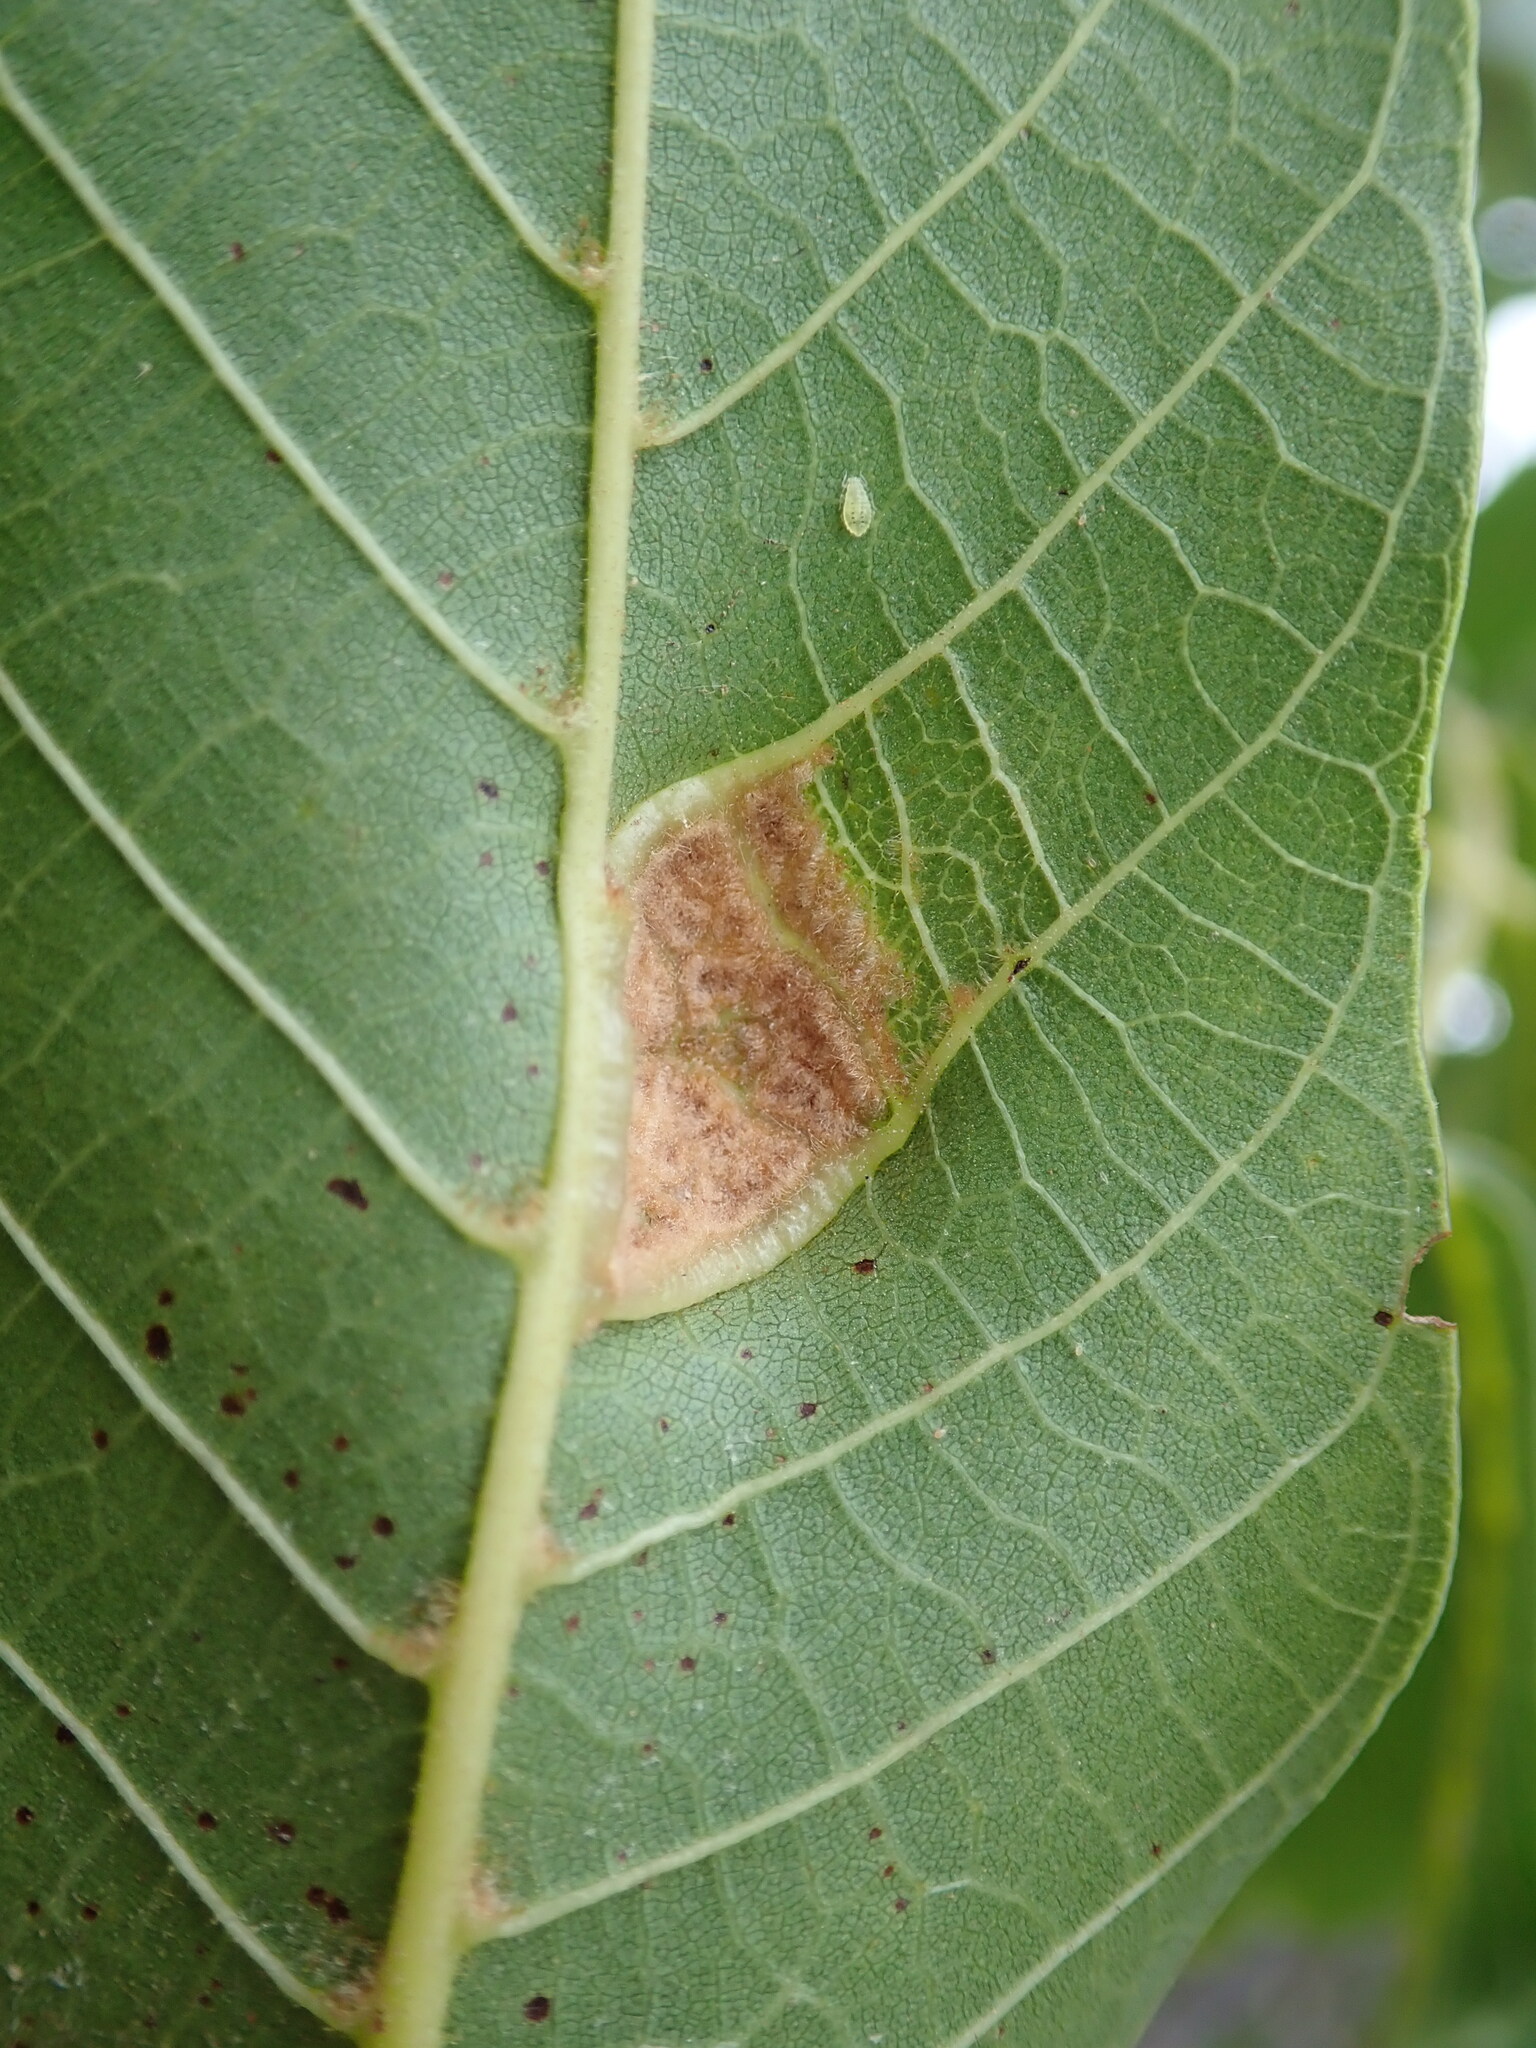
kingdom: Animalia
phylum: Arthropoda
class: Arachnida
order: Trombidiformes
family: Eriophyidae
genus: Aceria
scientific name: Aceria erinea
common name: Persian walnut erineum mite
